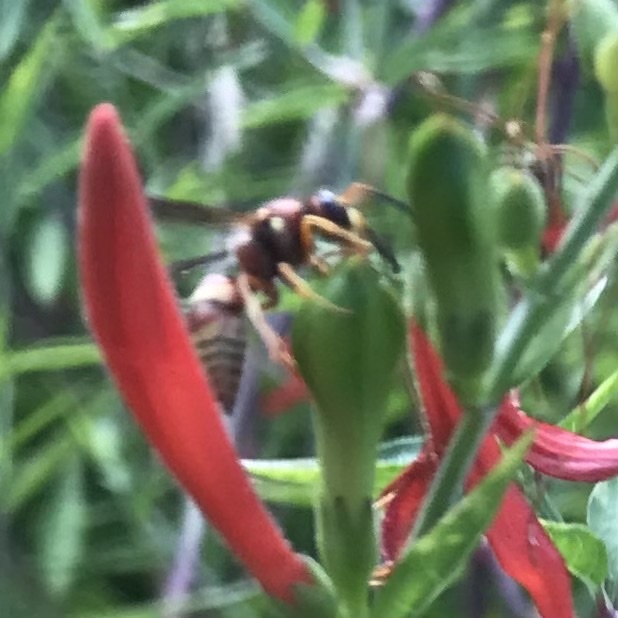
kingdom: Animalia
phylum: Arthropoda
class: Insecta
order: Hymenoptera
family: Eumenidae
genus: Euodynerus
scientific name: Euodynerus
